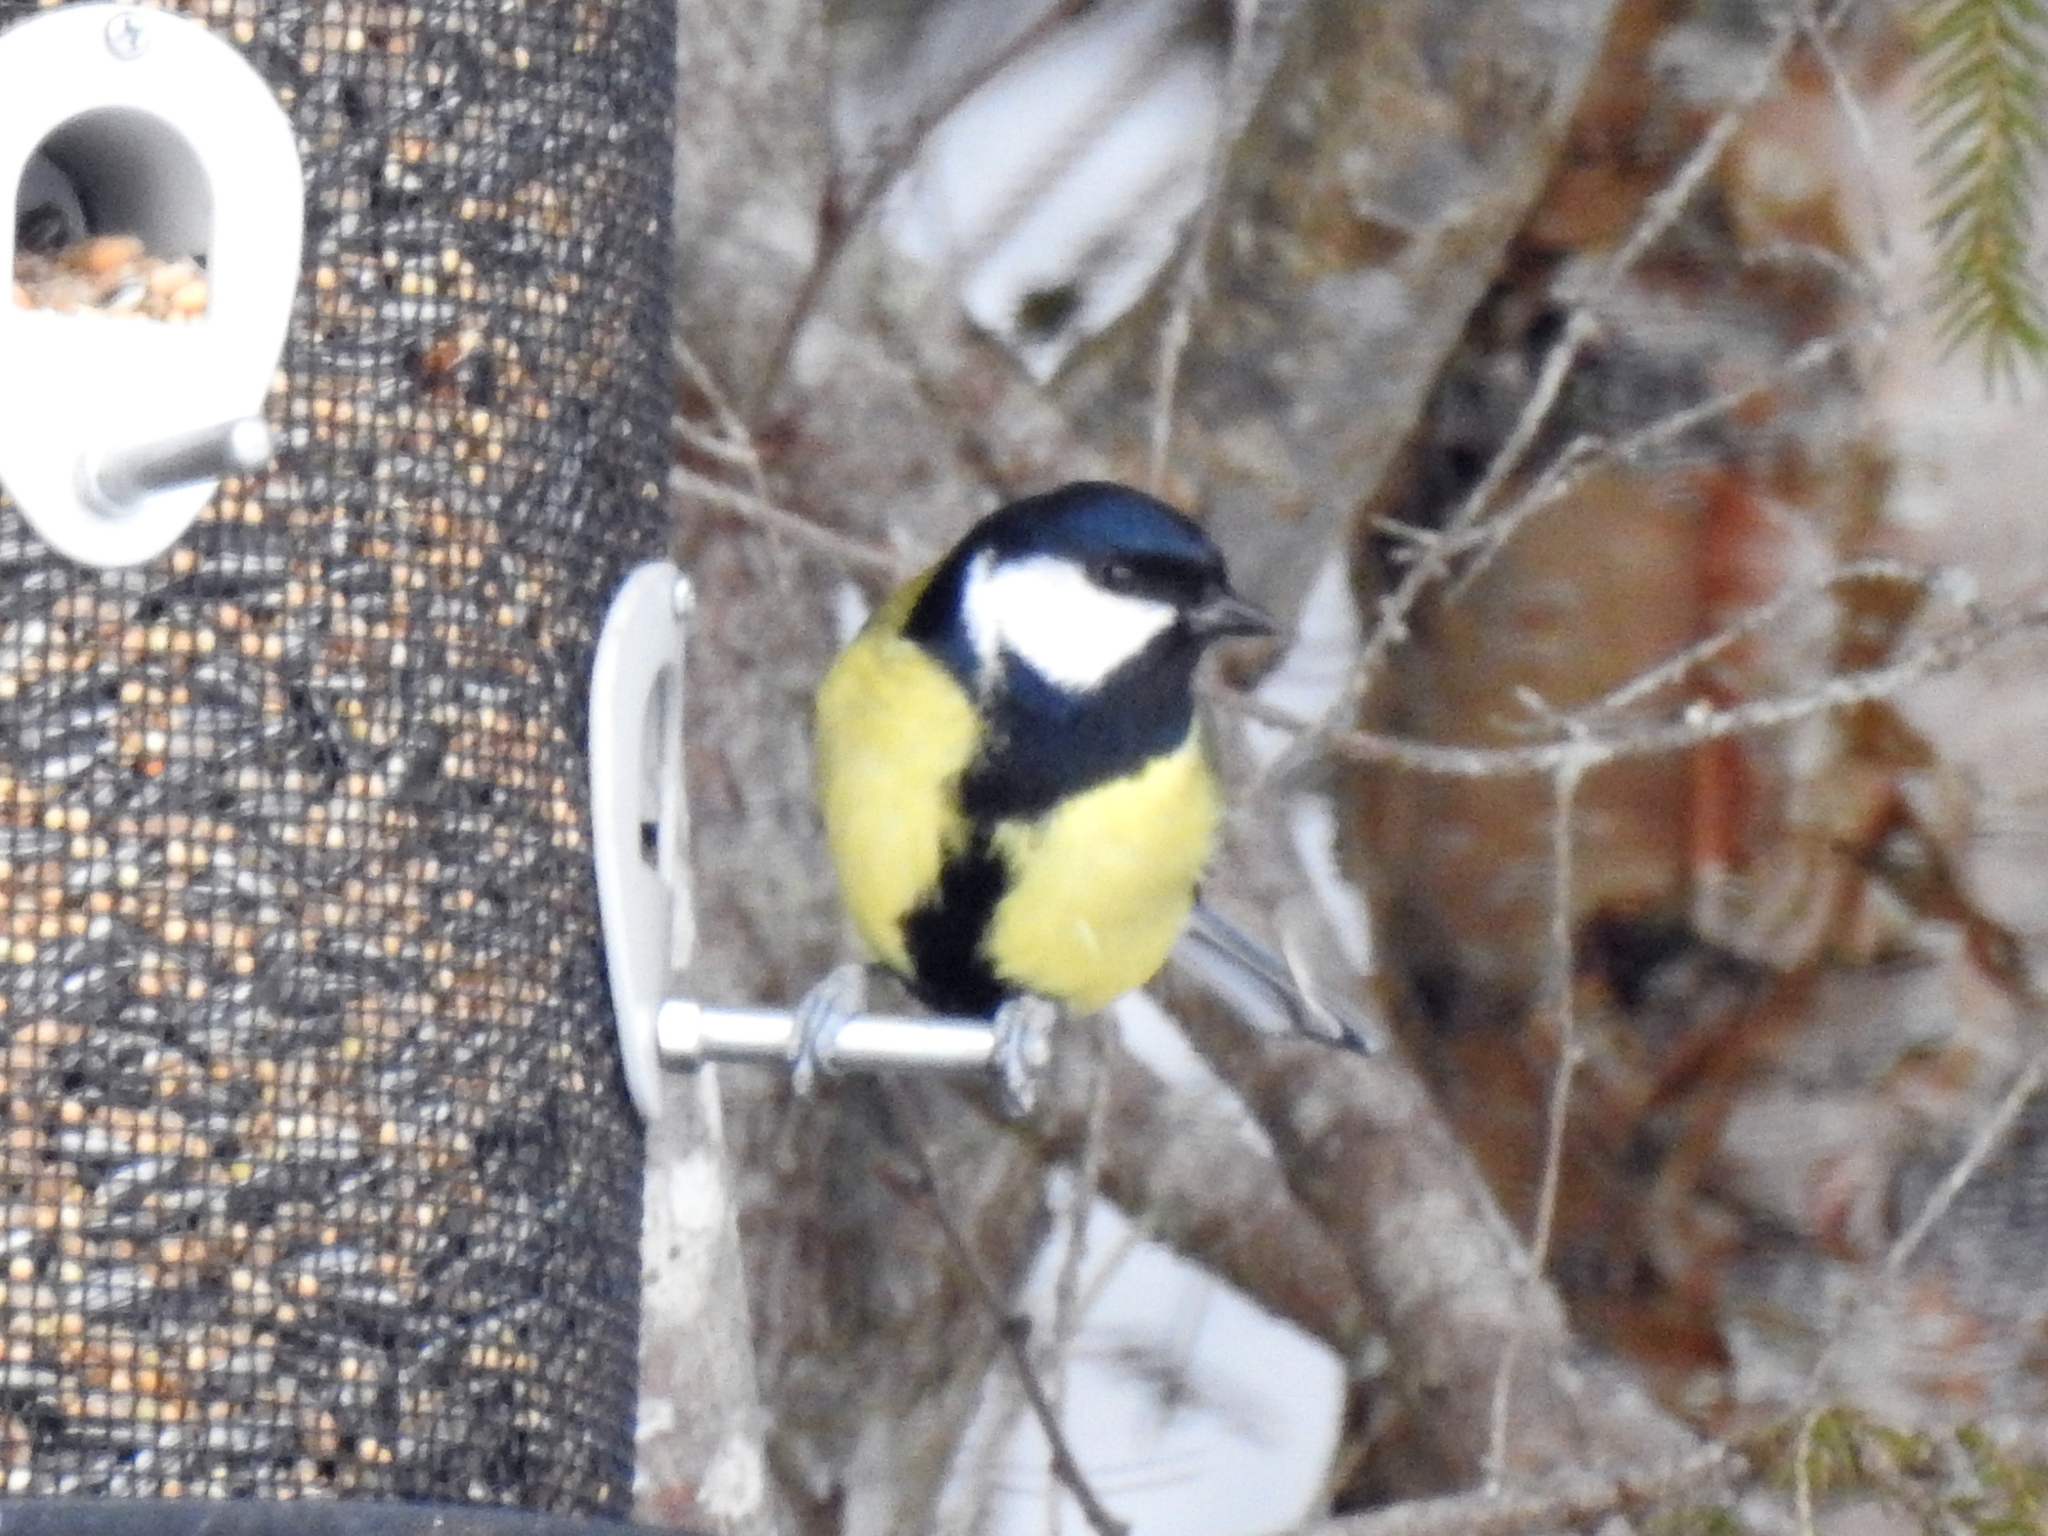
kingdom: Animalia
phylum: Chordata
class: Aves
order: Passeriformes
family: Paridae
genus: Parus
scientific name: Parus major
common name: Great tit
